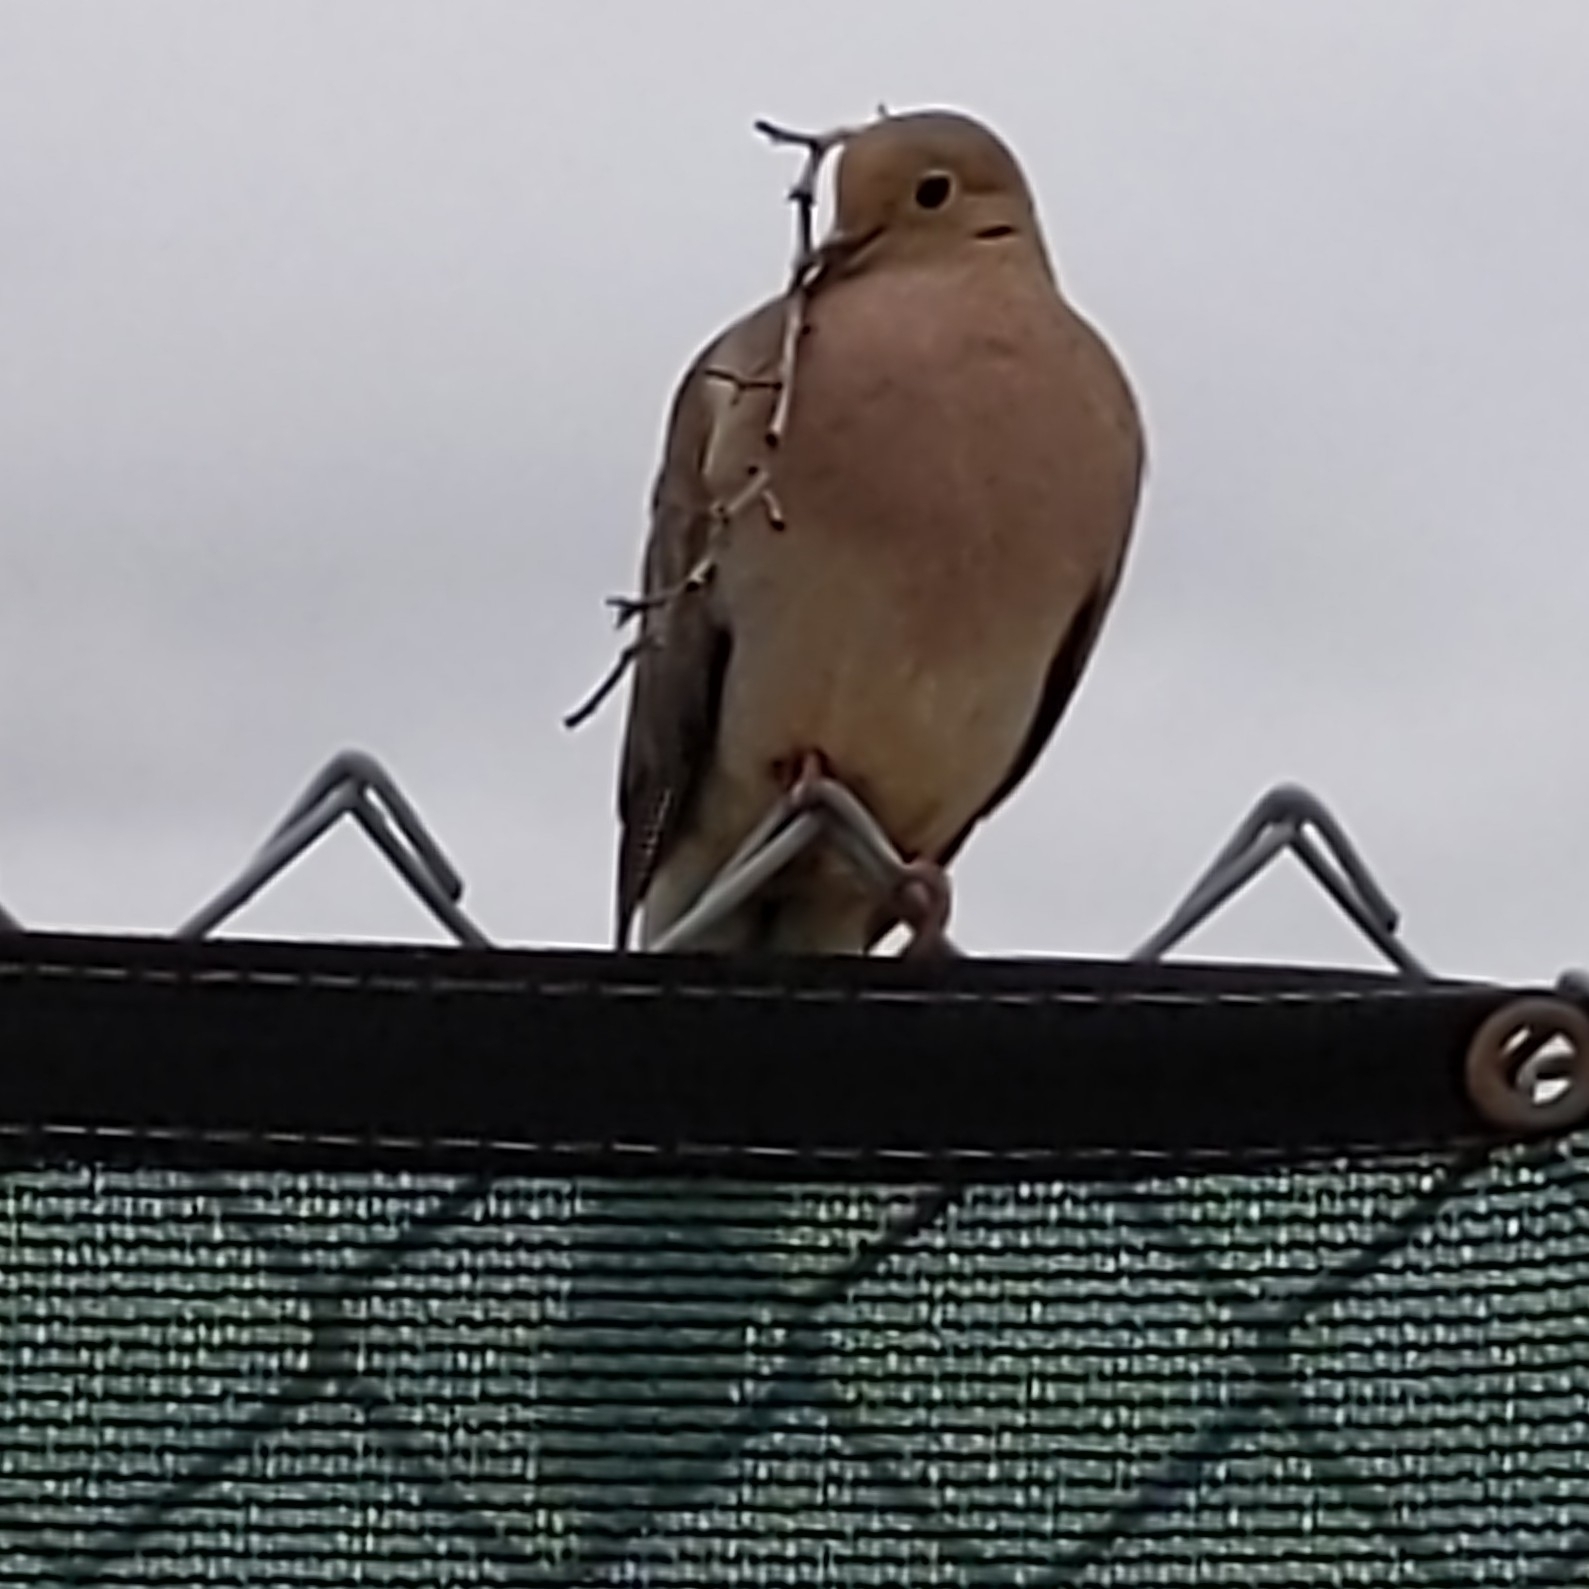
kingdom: Animalia
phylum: Chordata
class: Aves
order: Columbiformes
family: Columbidae
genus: Zenaida
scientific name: Zenaida macroura
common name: Mourning dove
